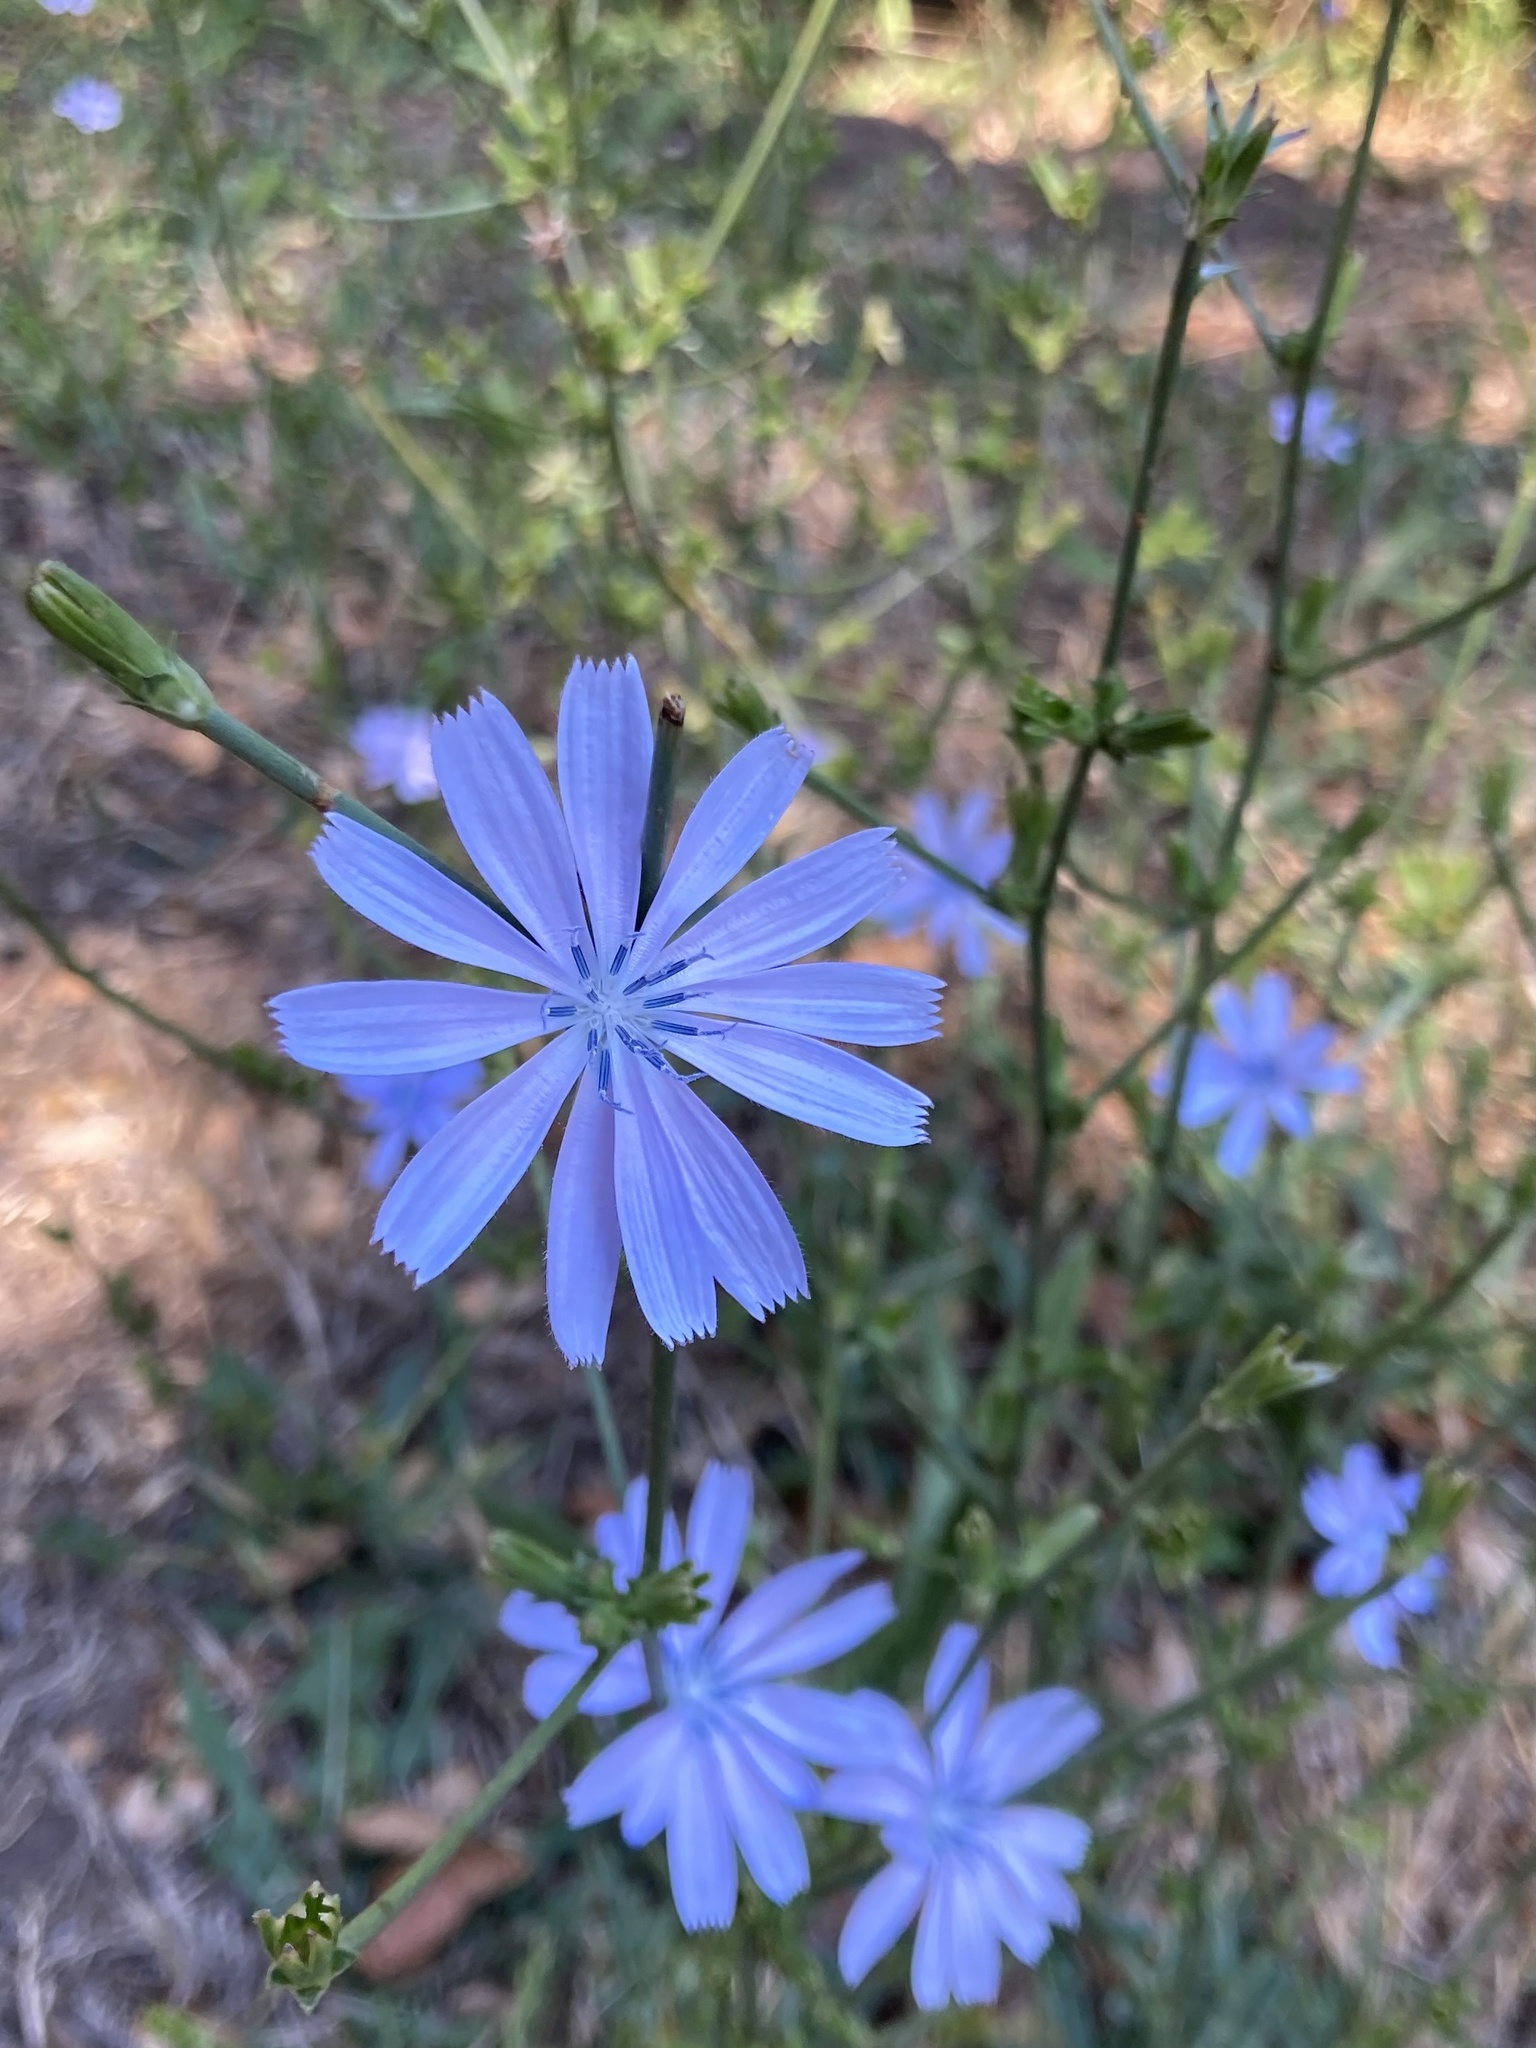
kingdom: Plantae
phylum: Tracheophyta
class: Magnoliopsida
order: Asterales
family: Asteraceae
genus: Cichorium
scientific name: Cichorium intybus
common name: Chicory
